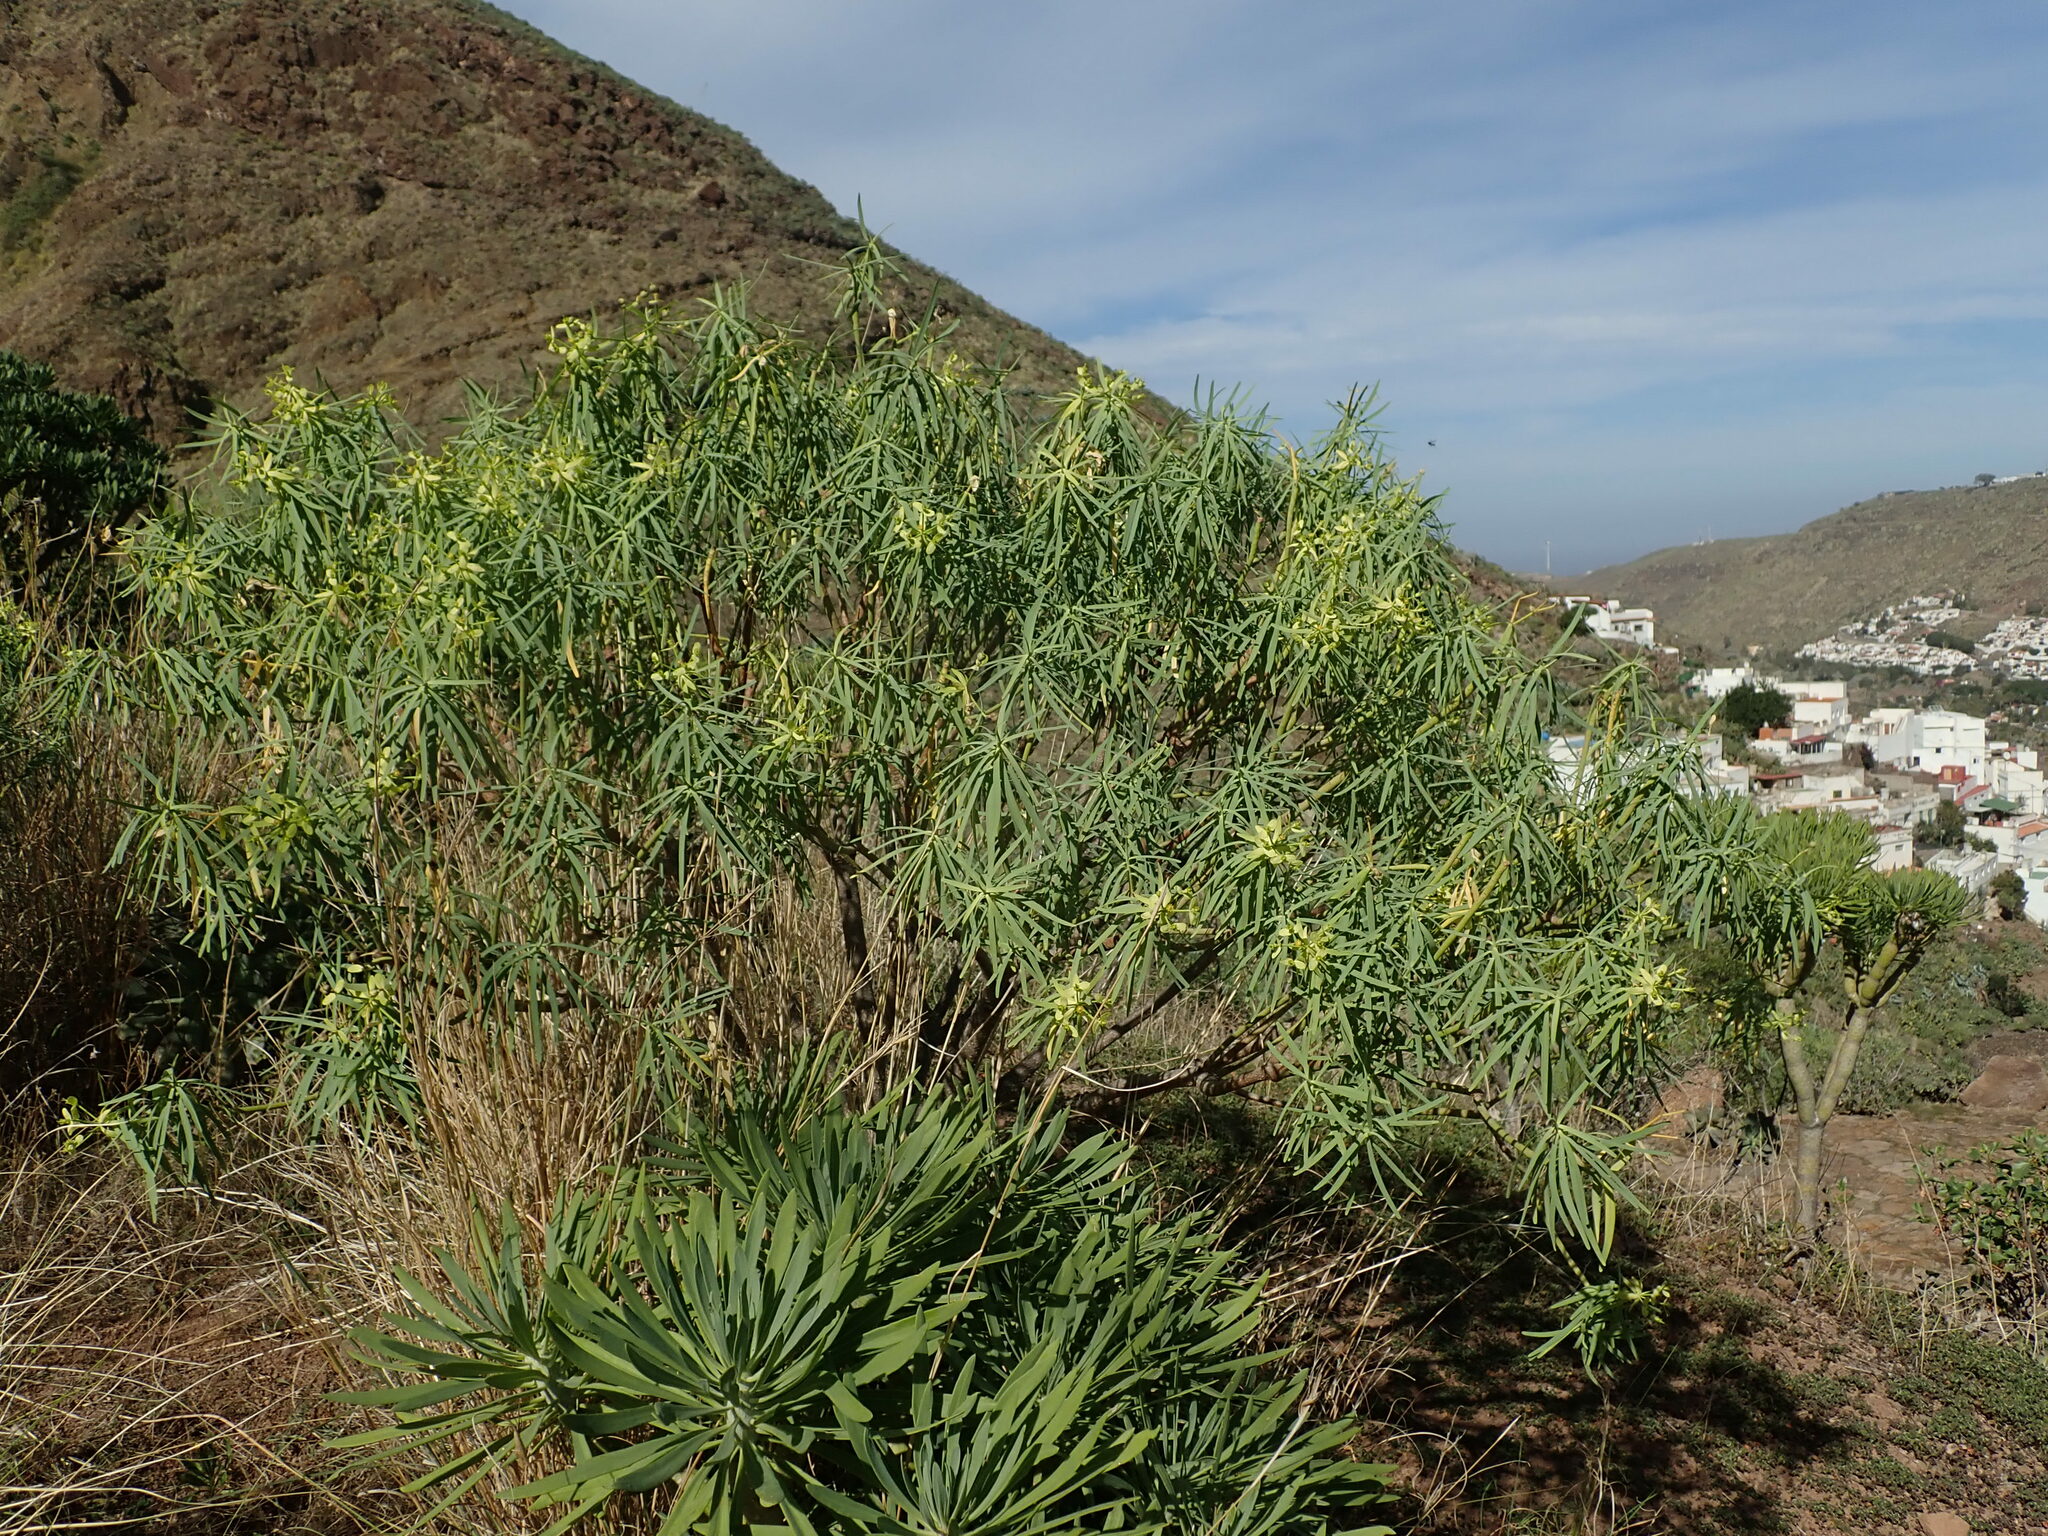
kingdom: Plantae
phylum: Tracheophyta
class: Magnoliopsida
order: Malpighiales
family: Euphorbiaceae
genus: Euphorbia
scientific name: Euphorbia regis-jubae
